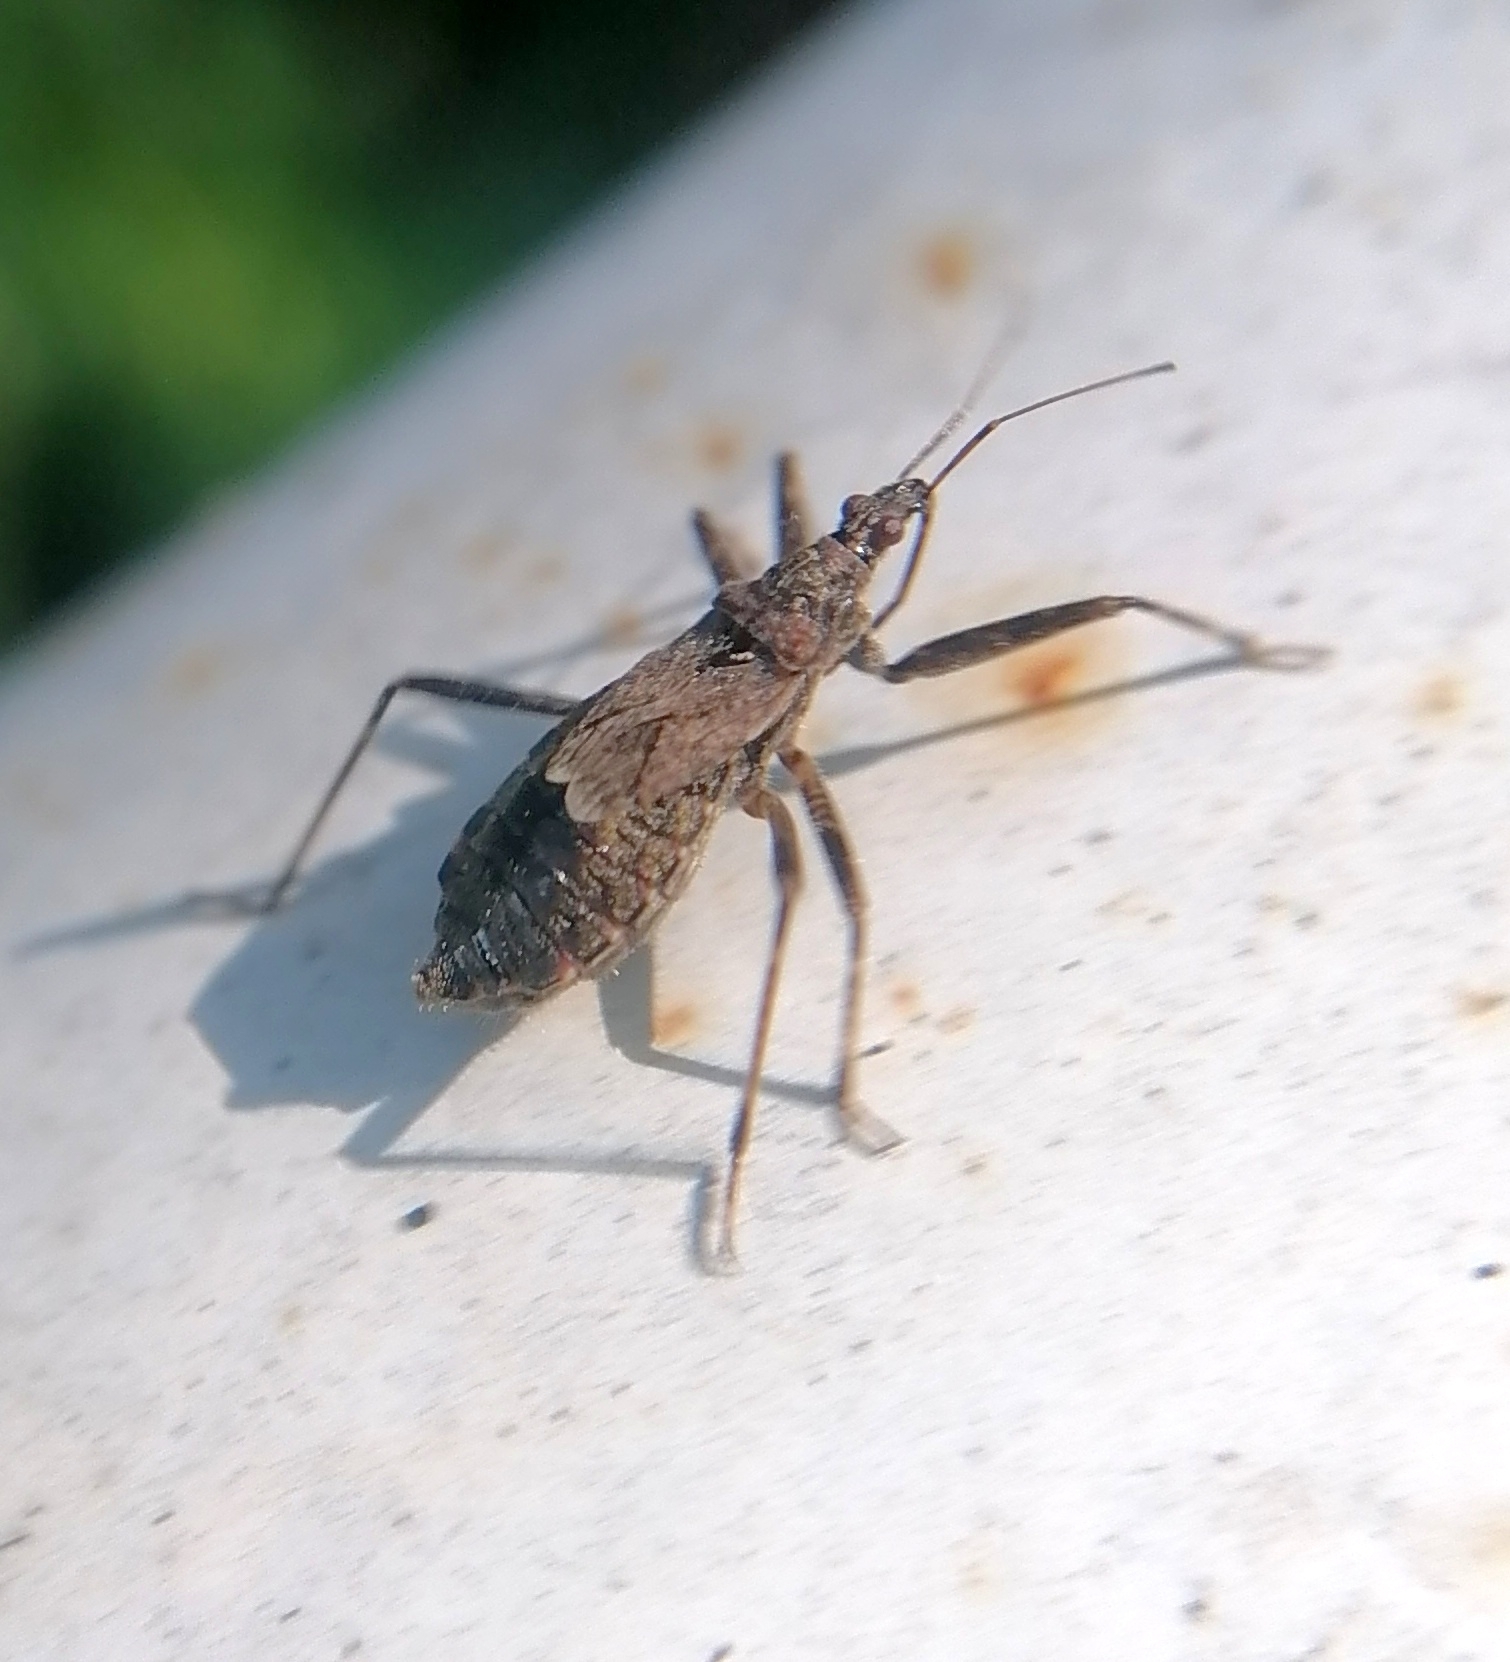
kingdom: Animalia
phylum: Arthropoda
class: Insecta
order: Hemiptera
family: Nabidae
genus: Himacerus
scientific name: Himacerus apterus
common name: Tree damsel bug
